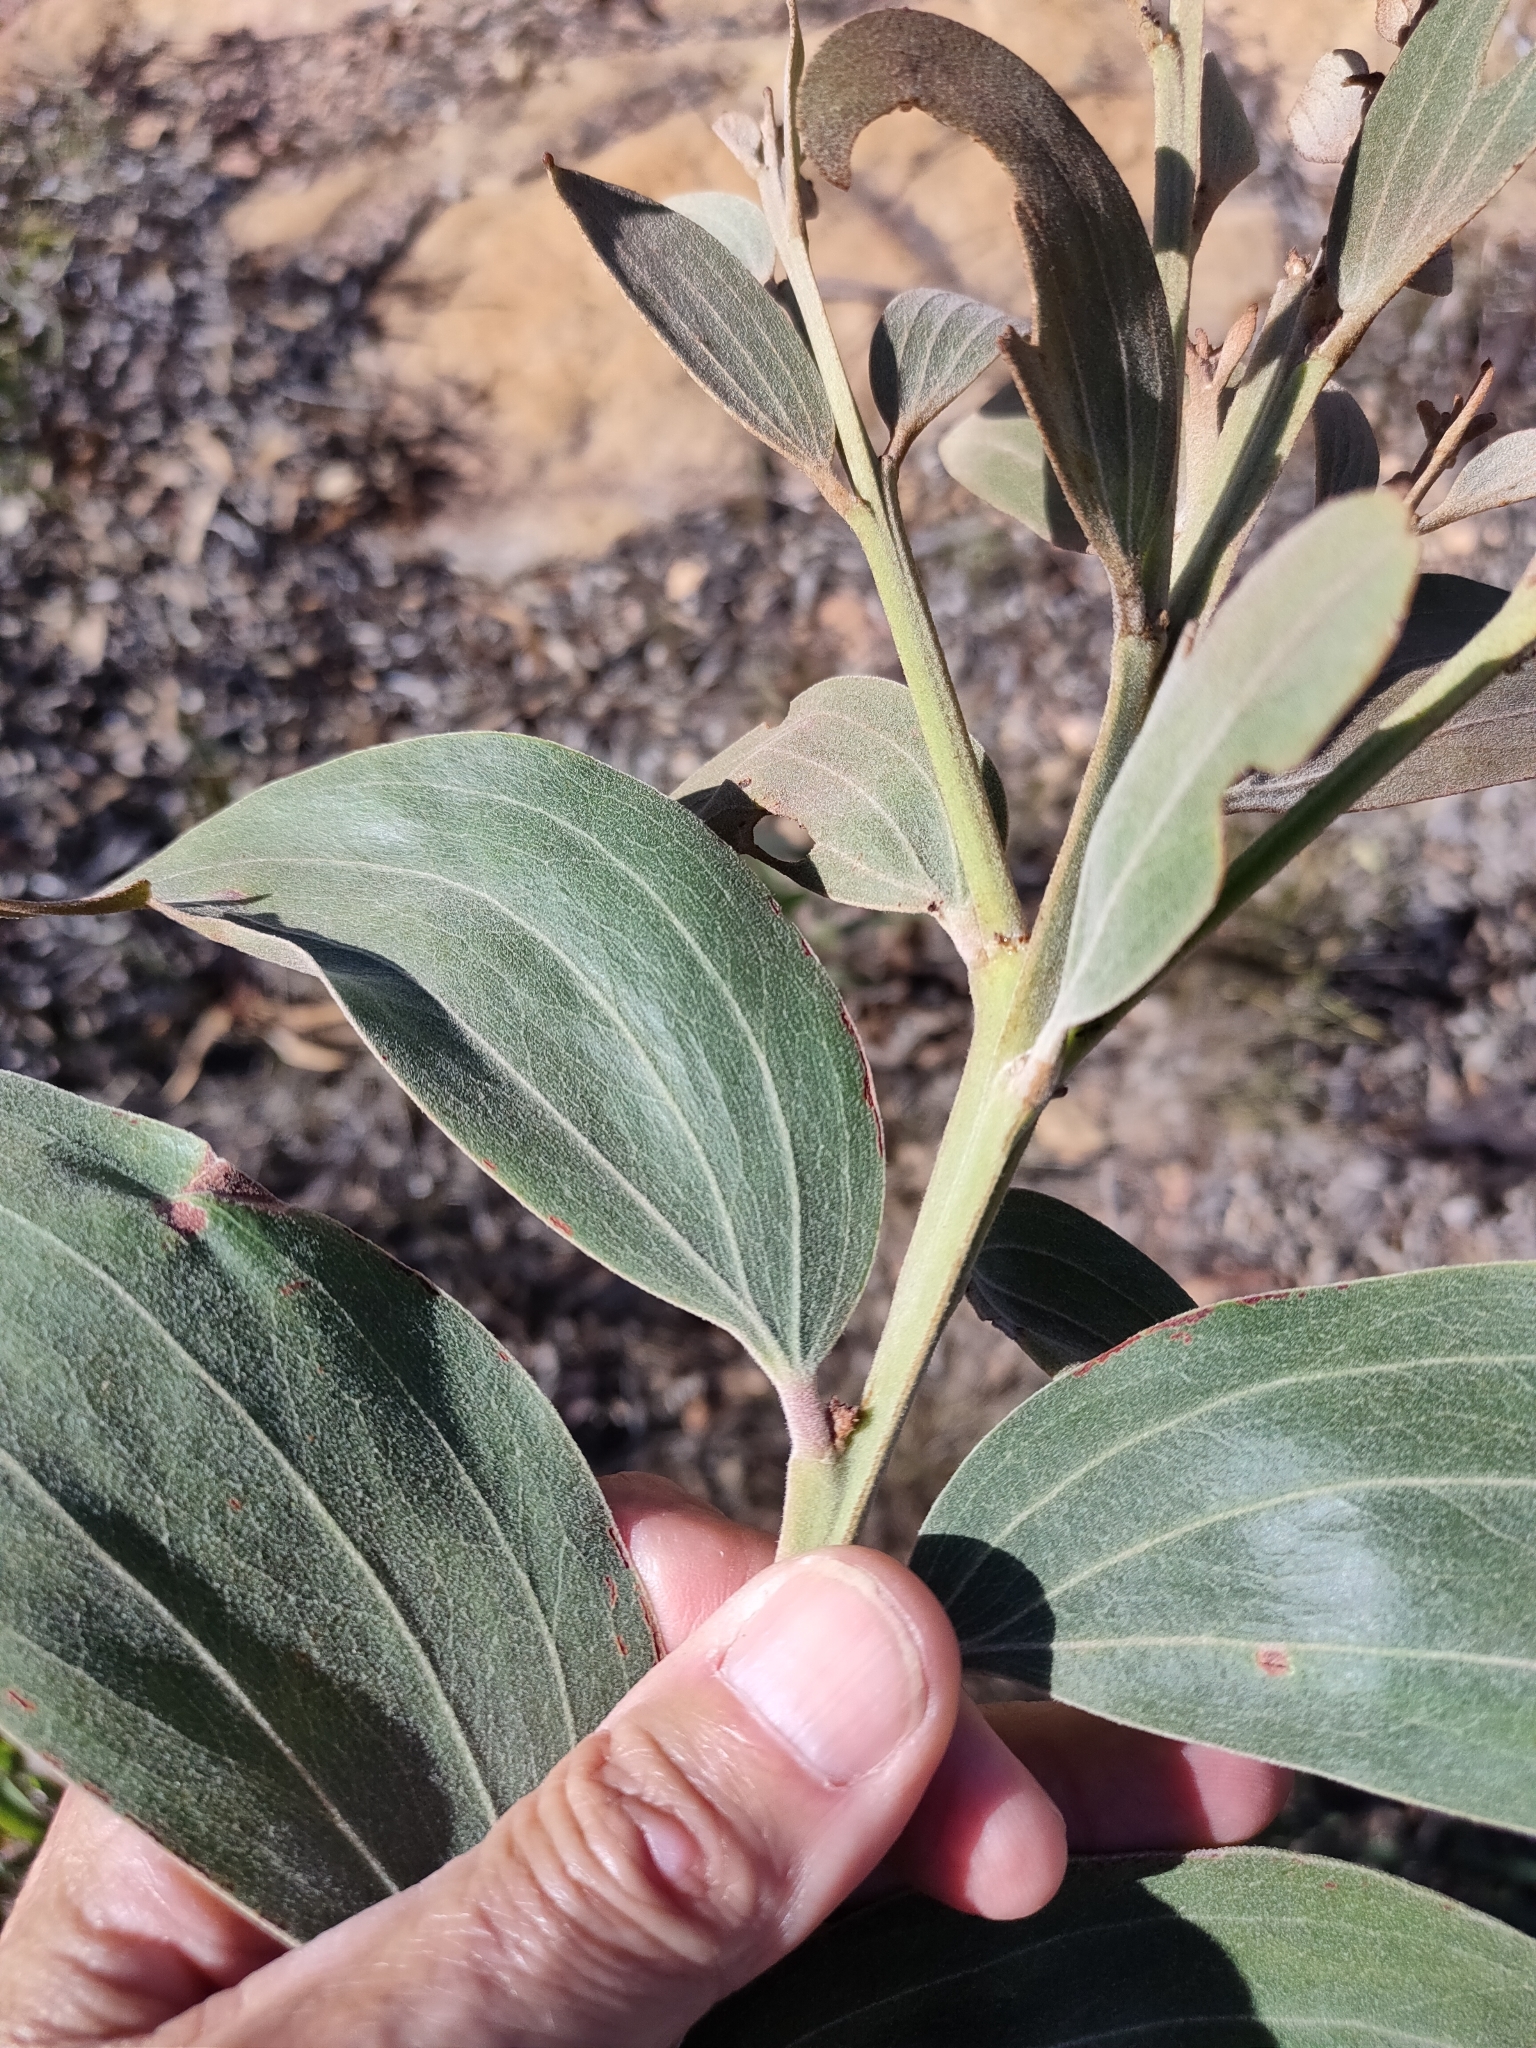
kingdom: Plantae
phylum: Tracheophyta
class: Magnoliopsida
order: Fabales
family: Fabaceae
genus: Acacia
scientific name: Acacia grandifolia
